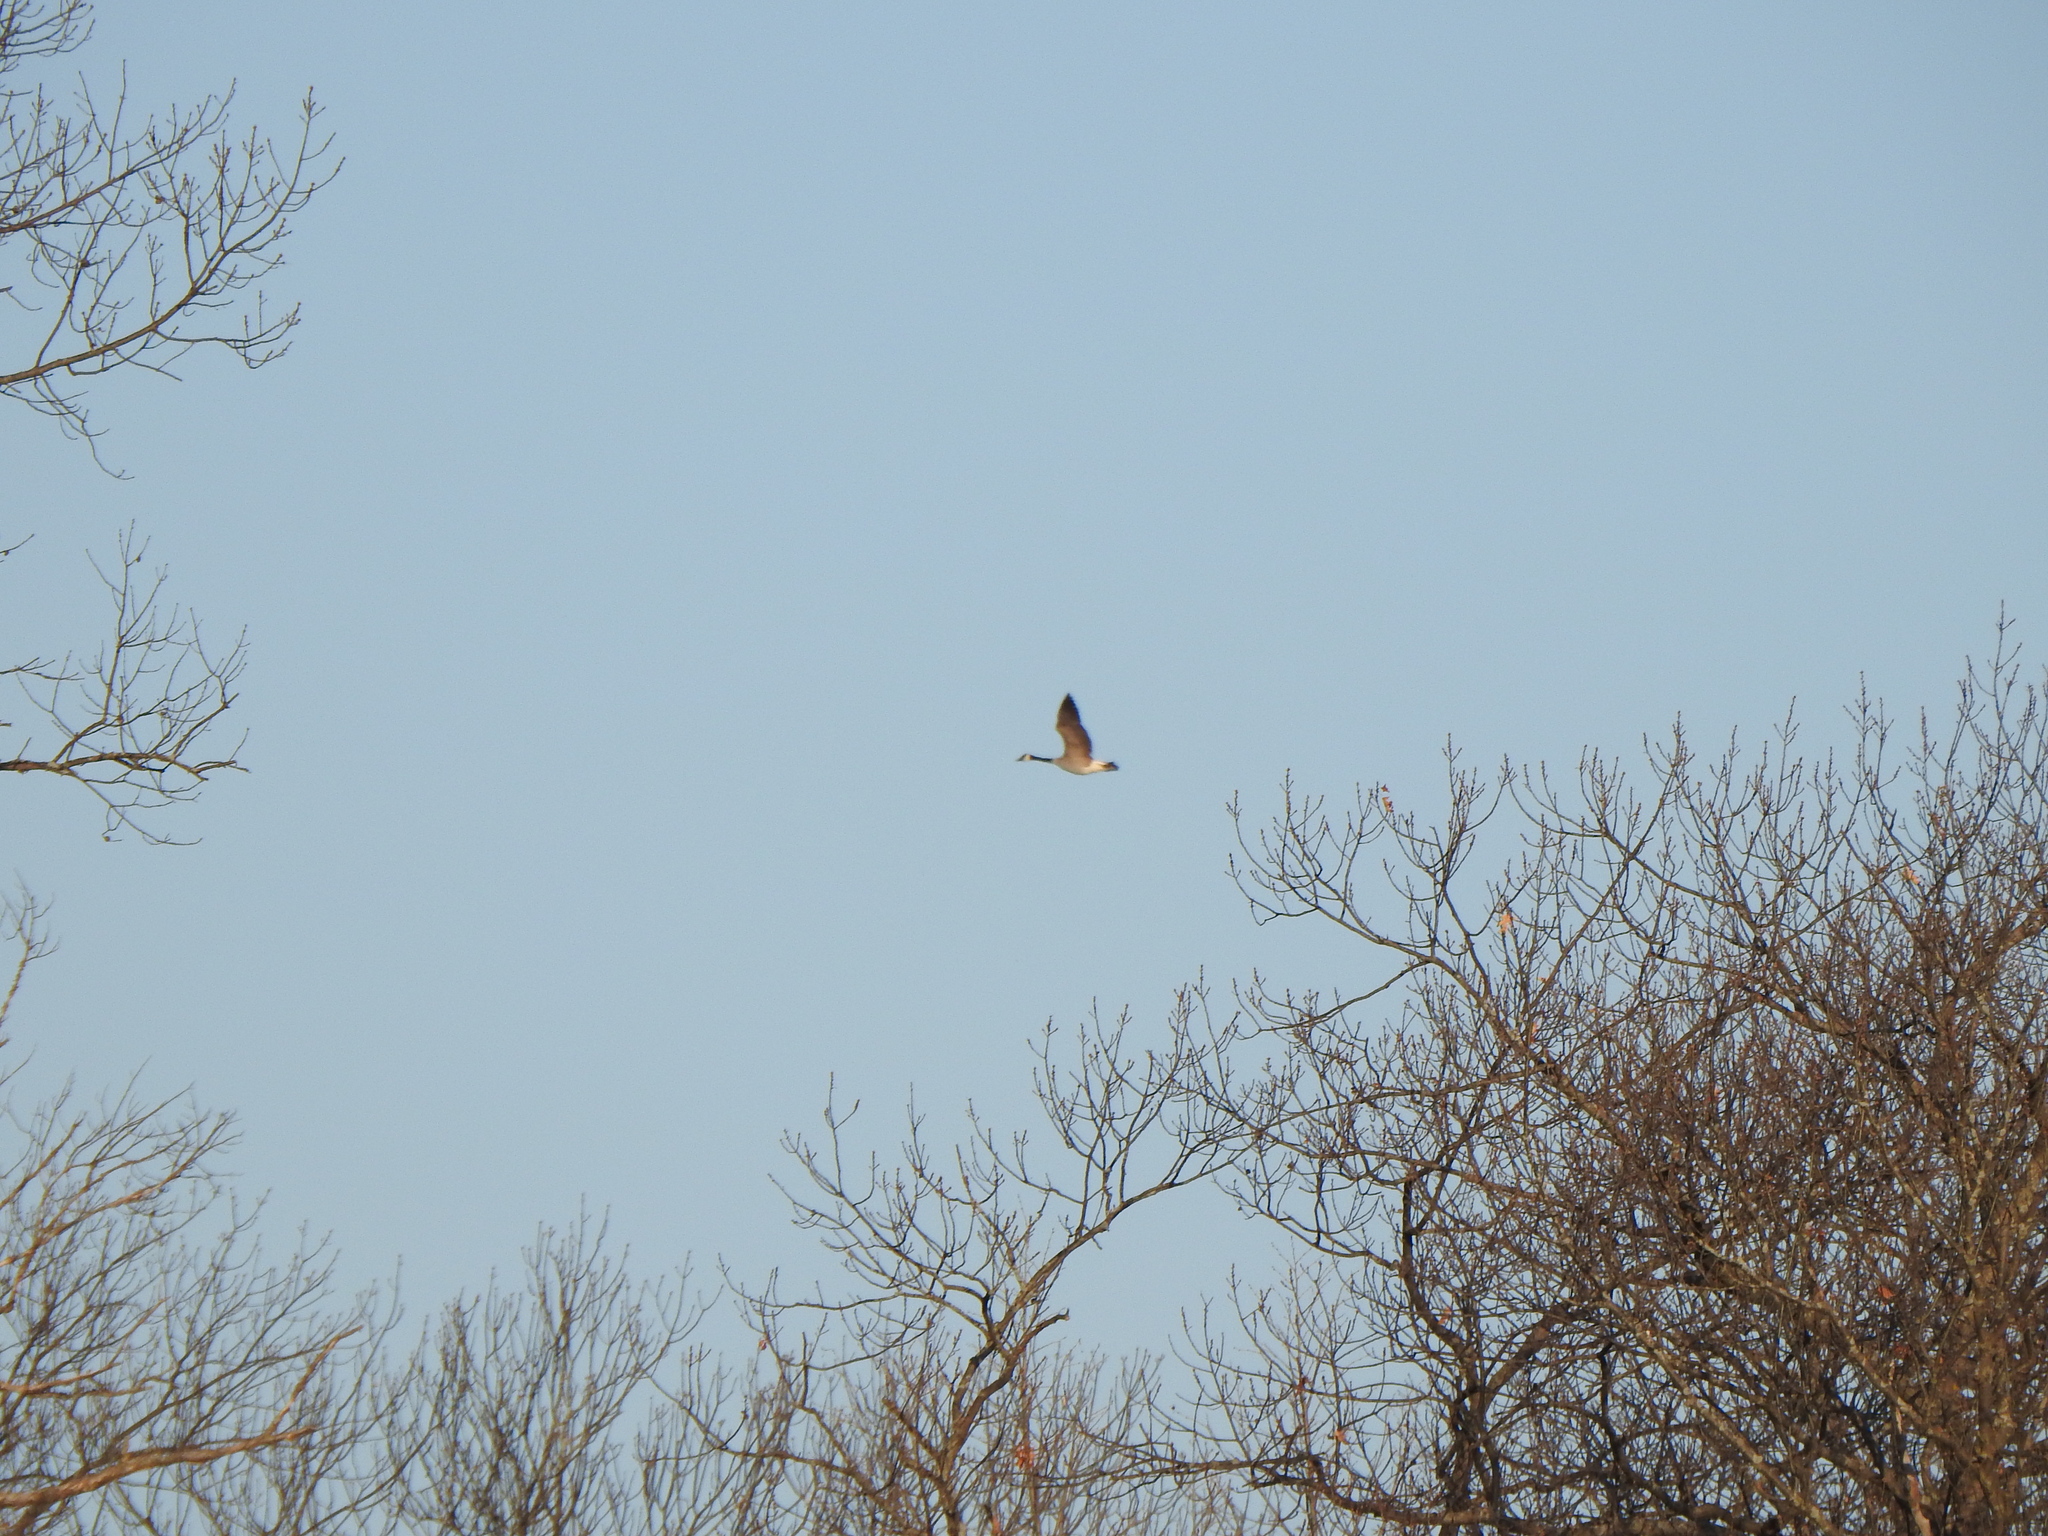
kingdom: Animalia
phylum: Chordata
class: Aves
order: Anseriformes
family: Anatidae
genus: Branta
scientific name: Branta canadensis
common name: Canada goose
